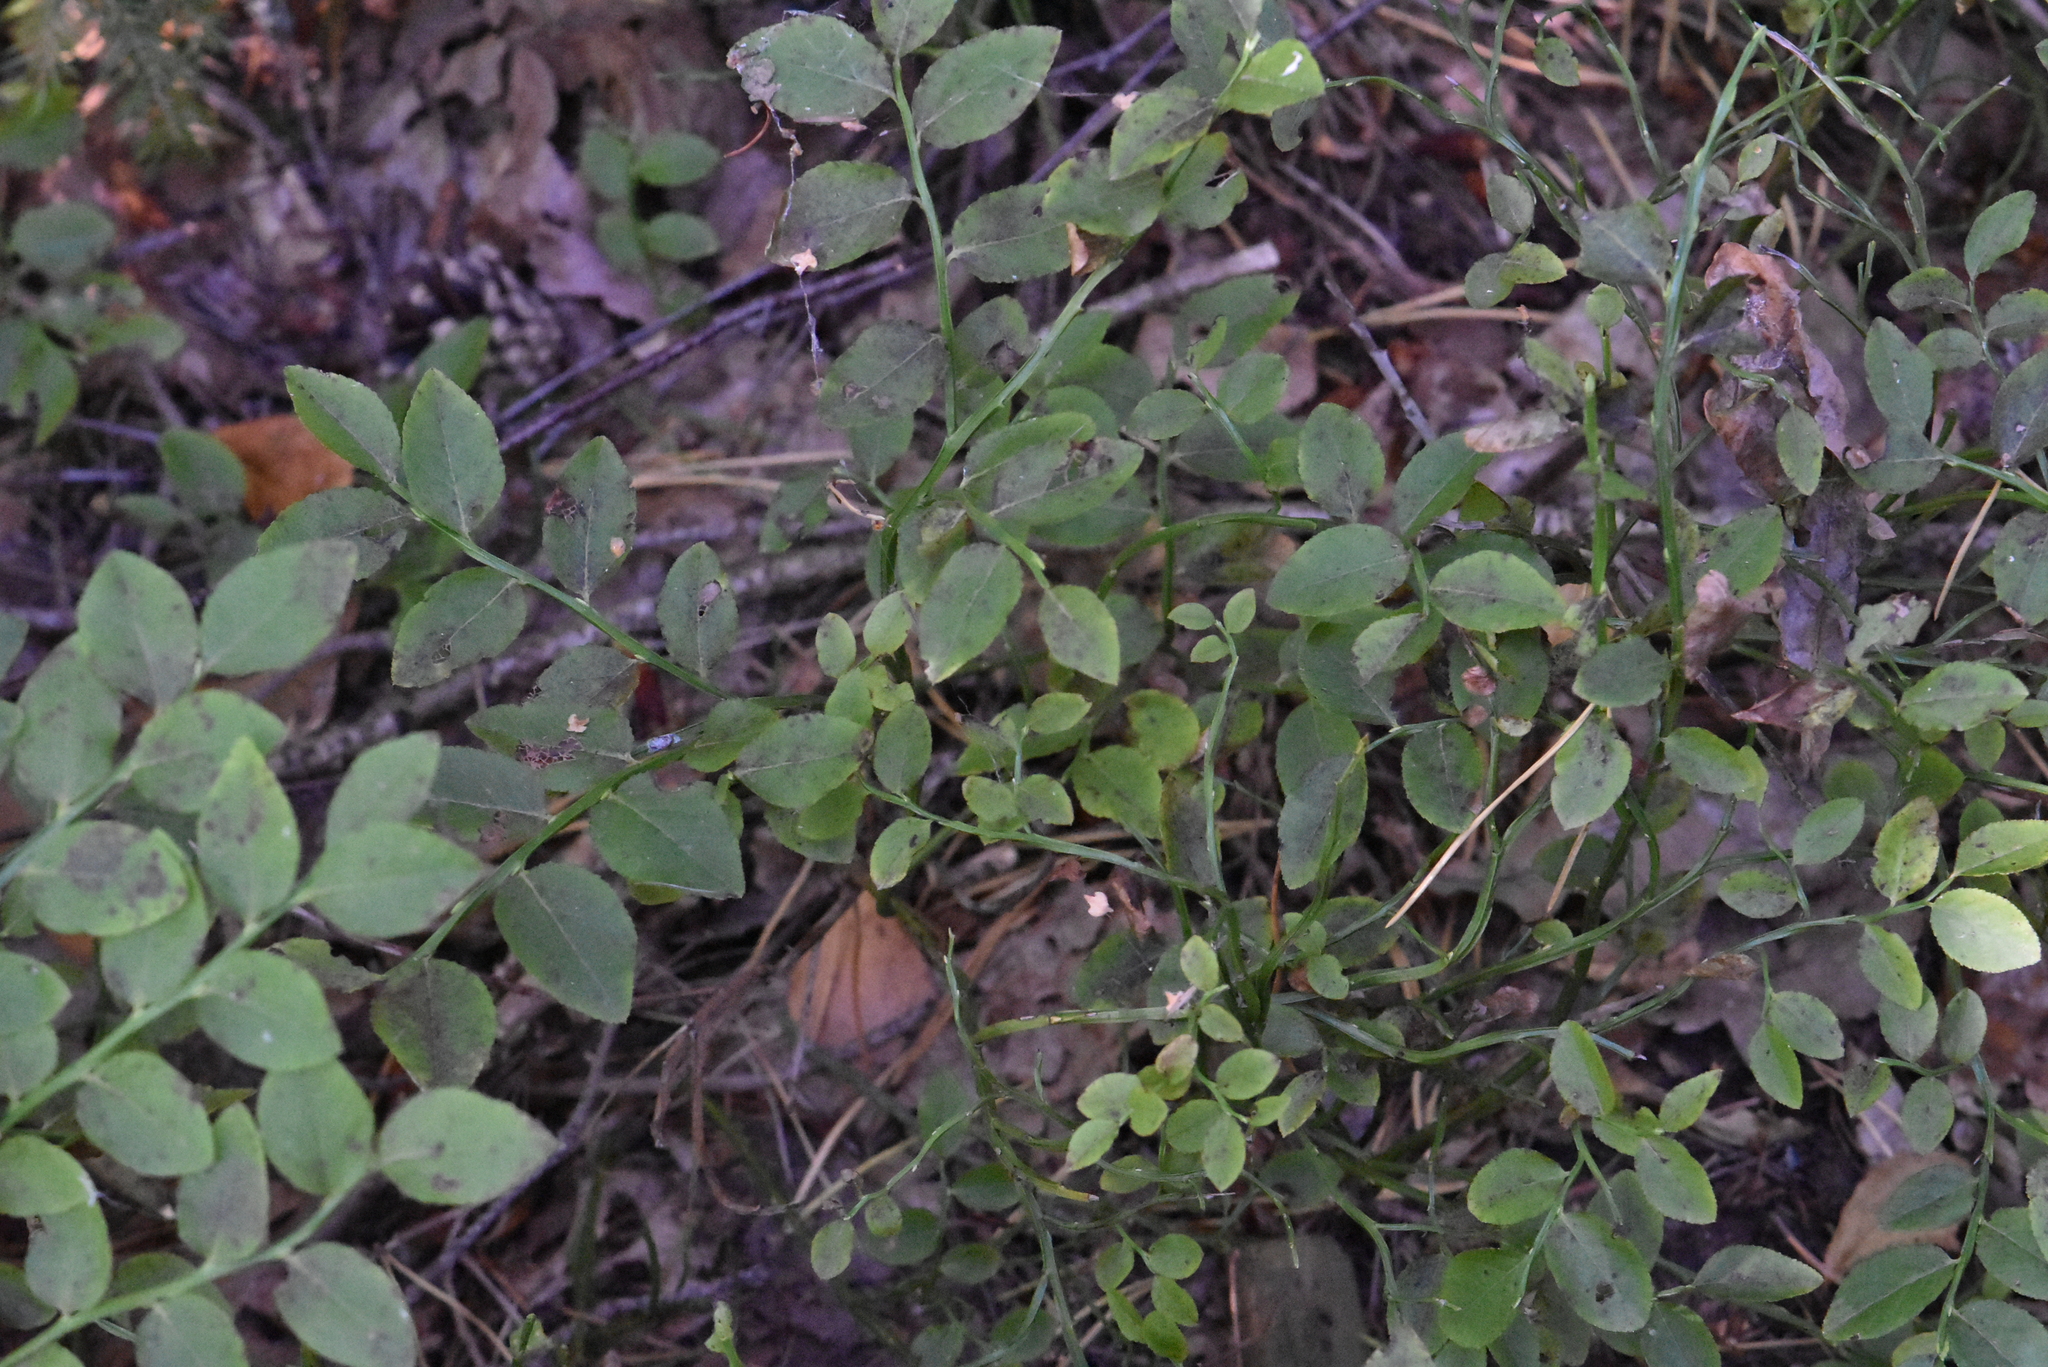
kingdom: Plantae
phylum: Tracheophyta
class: Magnoliopsida
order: Ericales
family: Ericaceae
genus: Vaccinium
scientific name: Vaccinium myrtillus
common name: Bilberry
